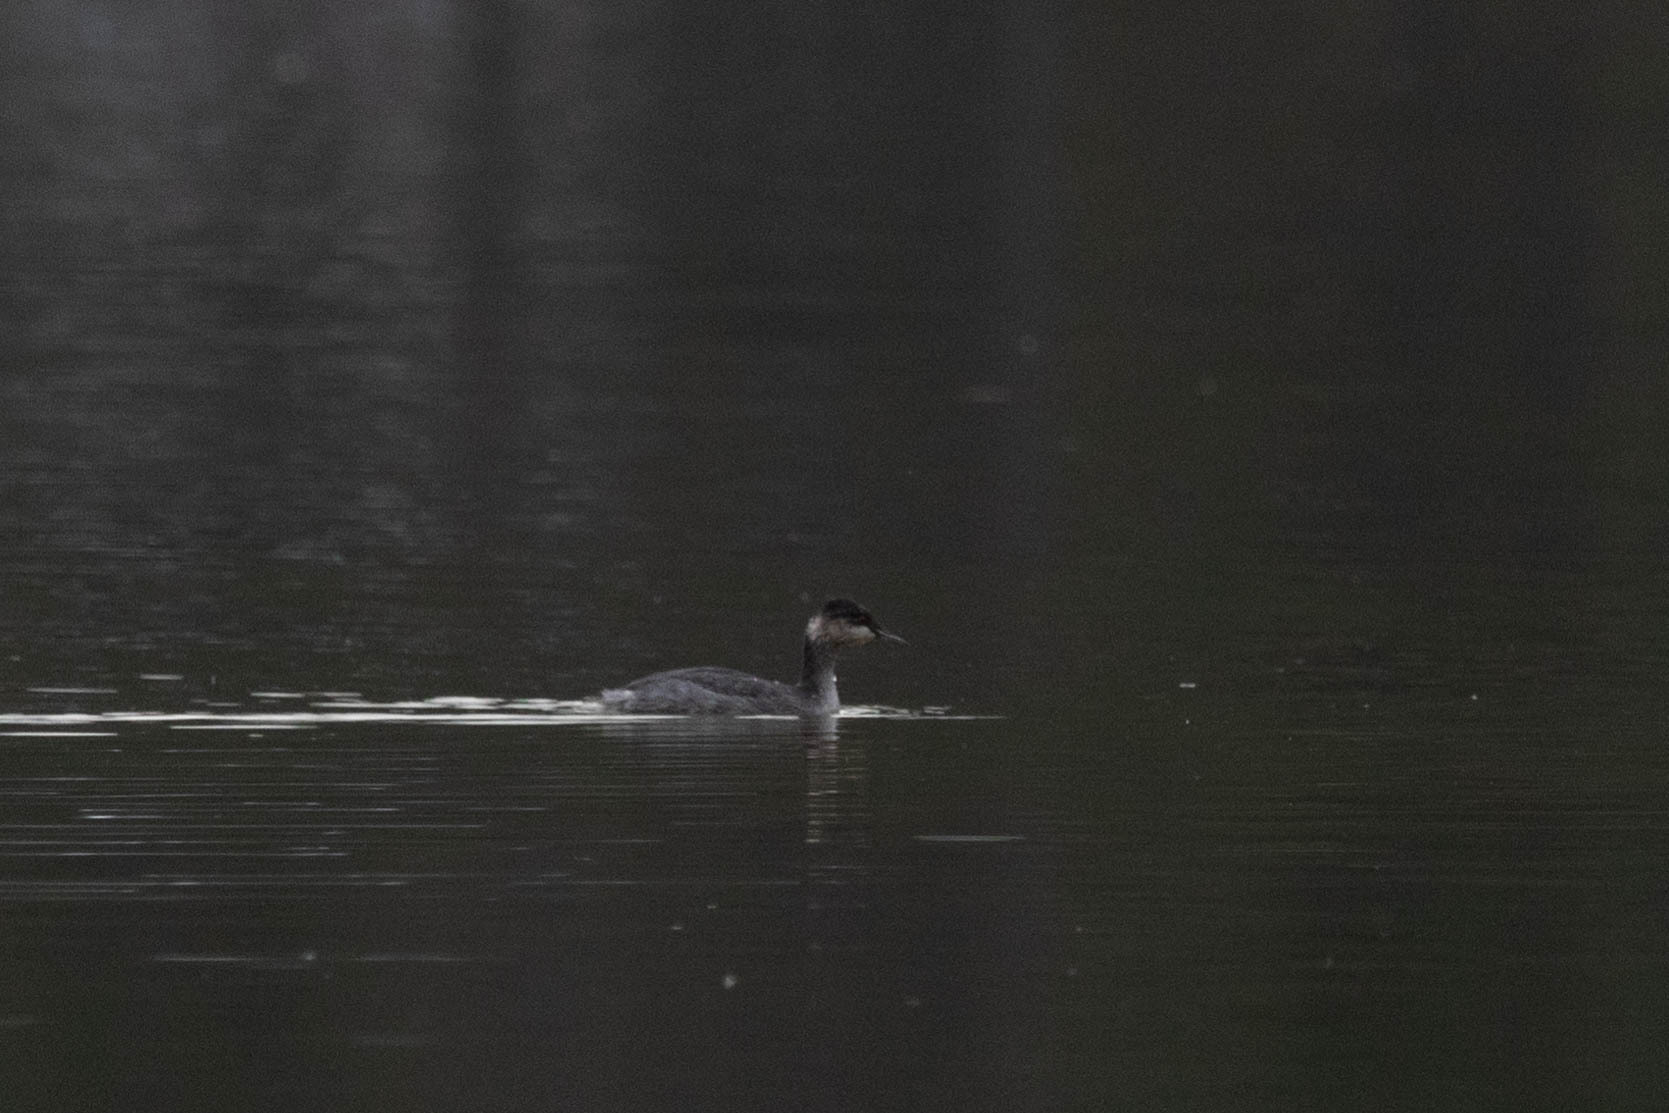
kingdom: Animalia
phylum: Chordata
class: Aves
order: Podicipediformes
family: Podicipedidae
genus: Podiceps
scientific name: Podiceps auritus
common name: Horned grebe
